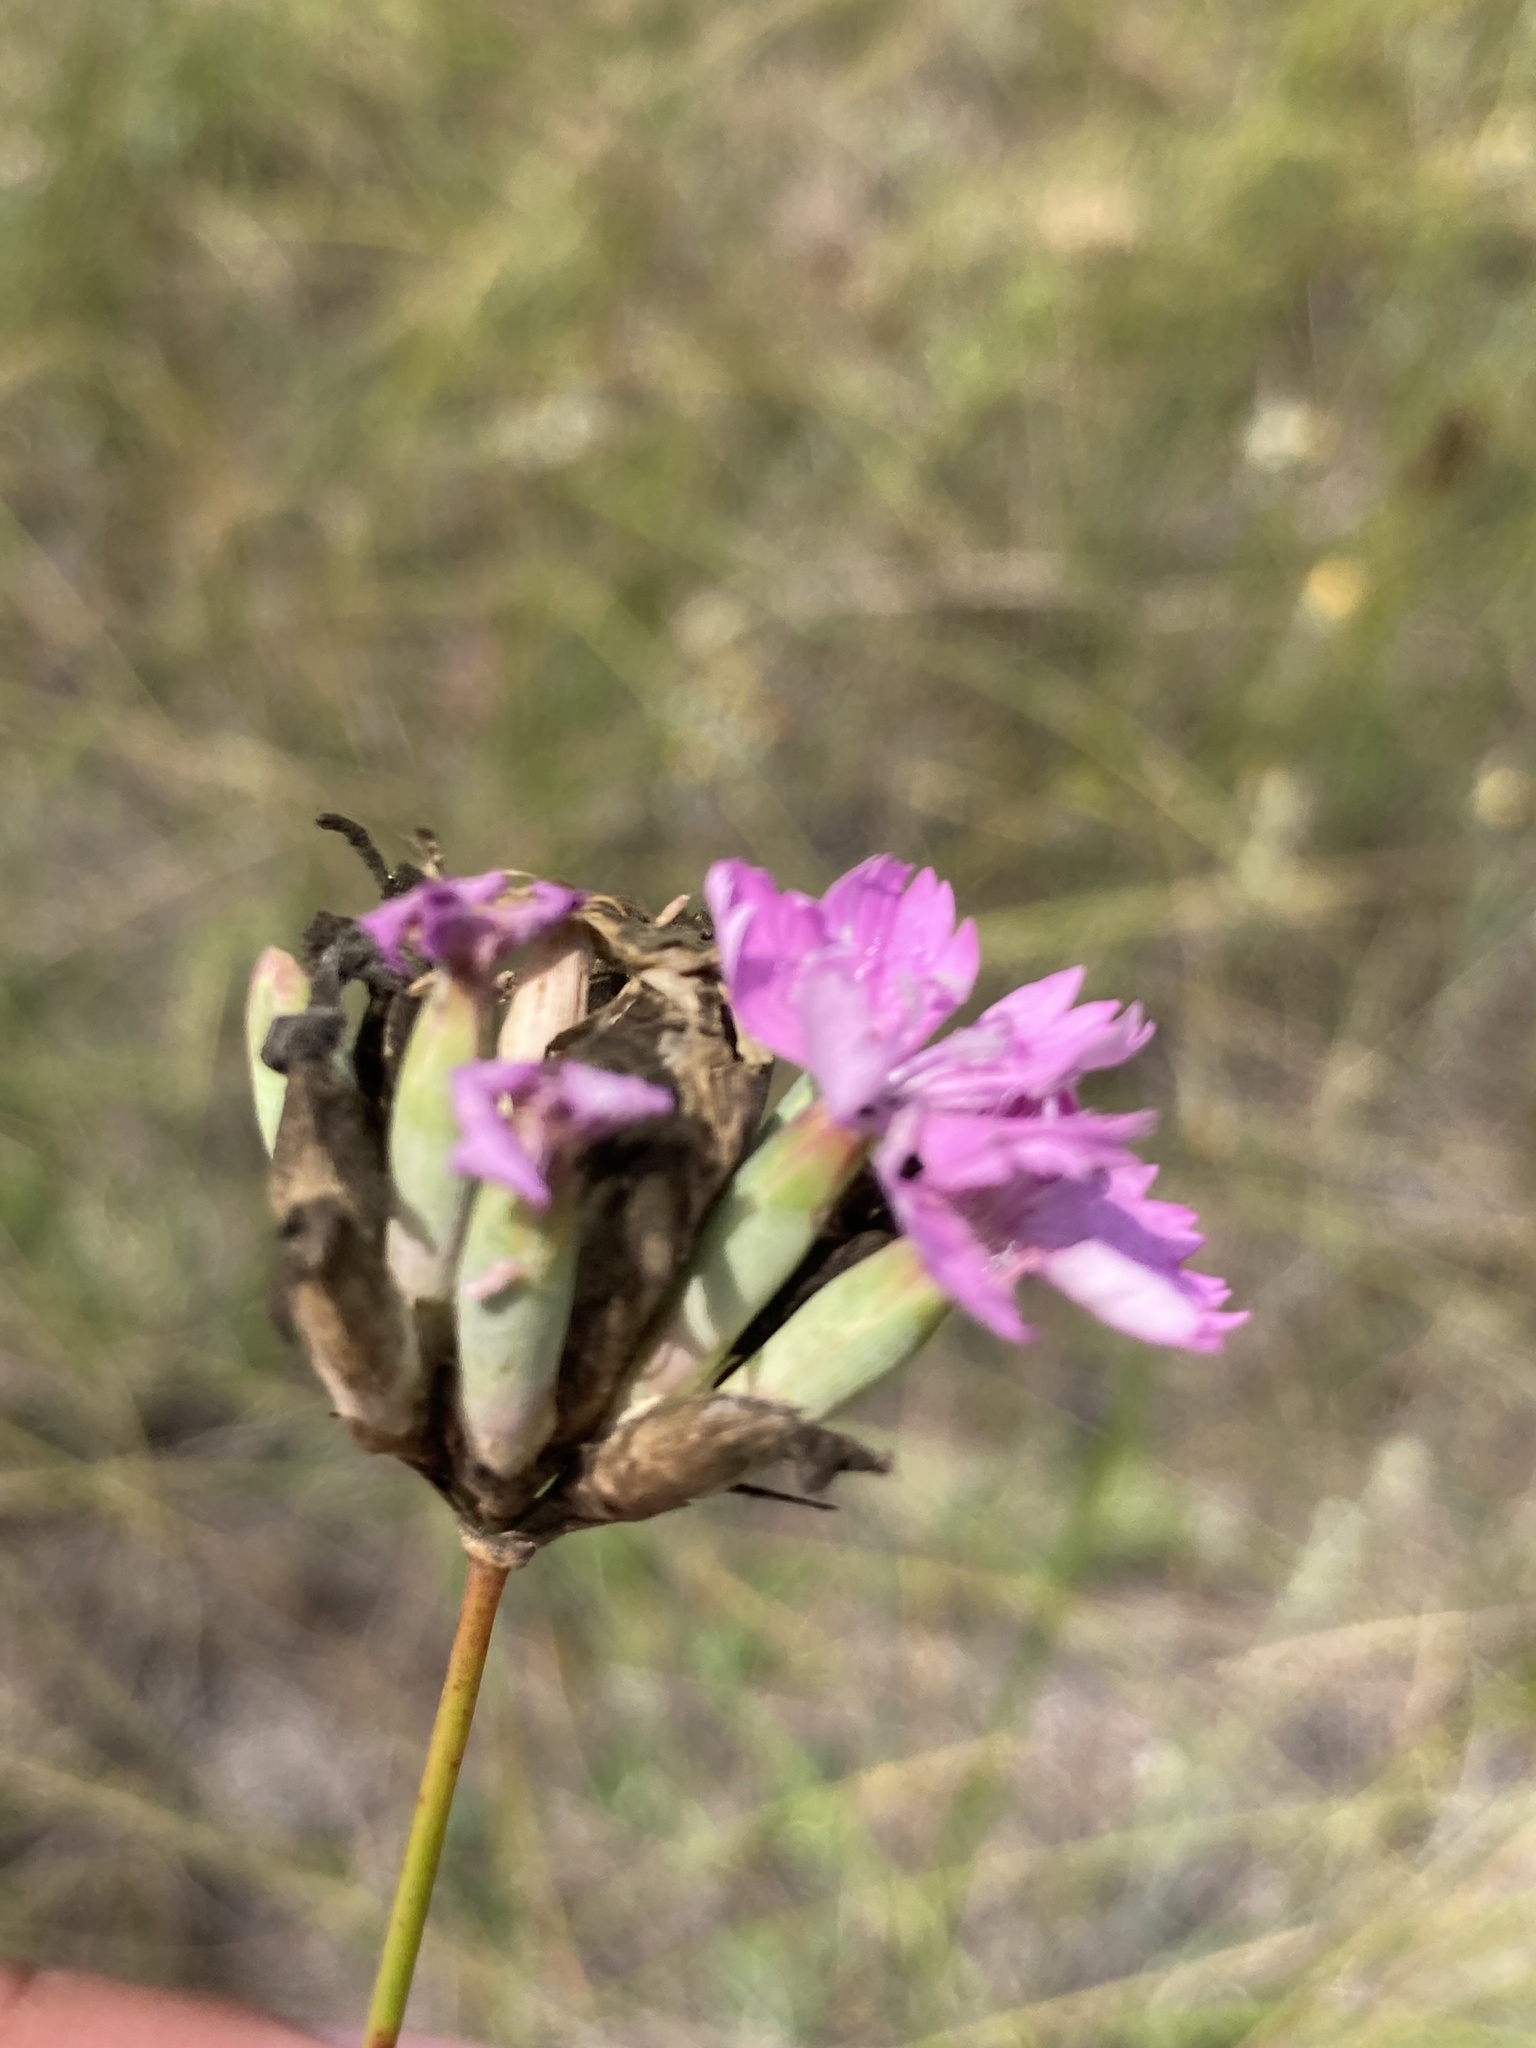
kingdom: Plantae
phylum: Tracheophyta
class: Magnoliopsida
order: Caryophyllales
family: Caryophyllaceae
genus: Dianthus
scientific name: Dianthus polymorphus
